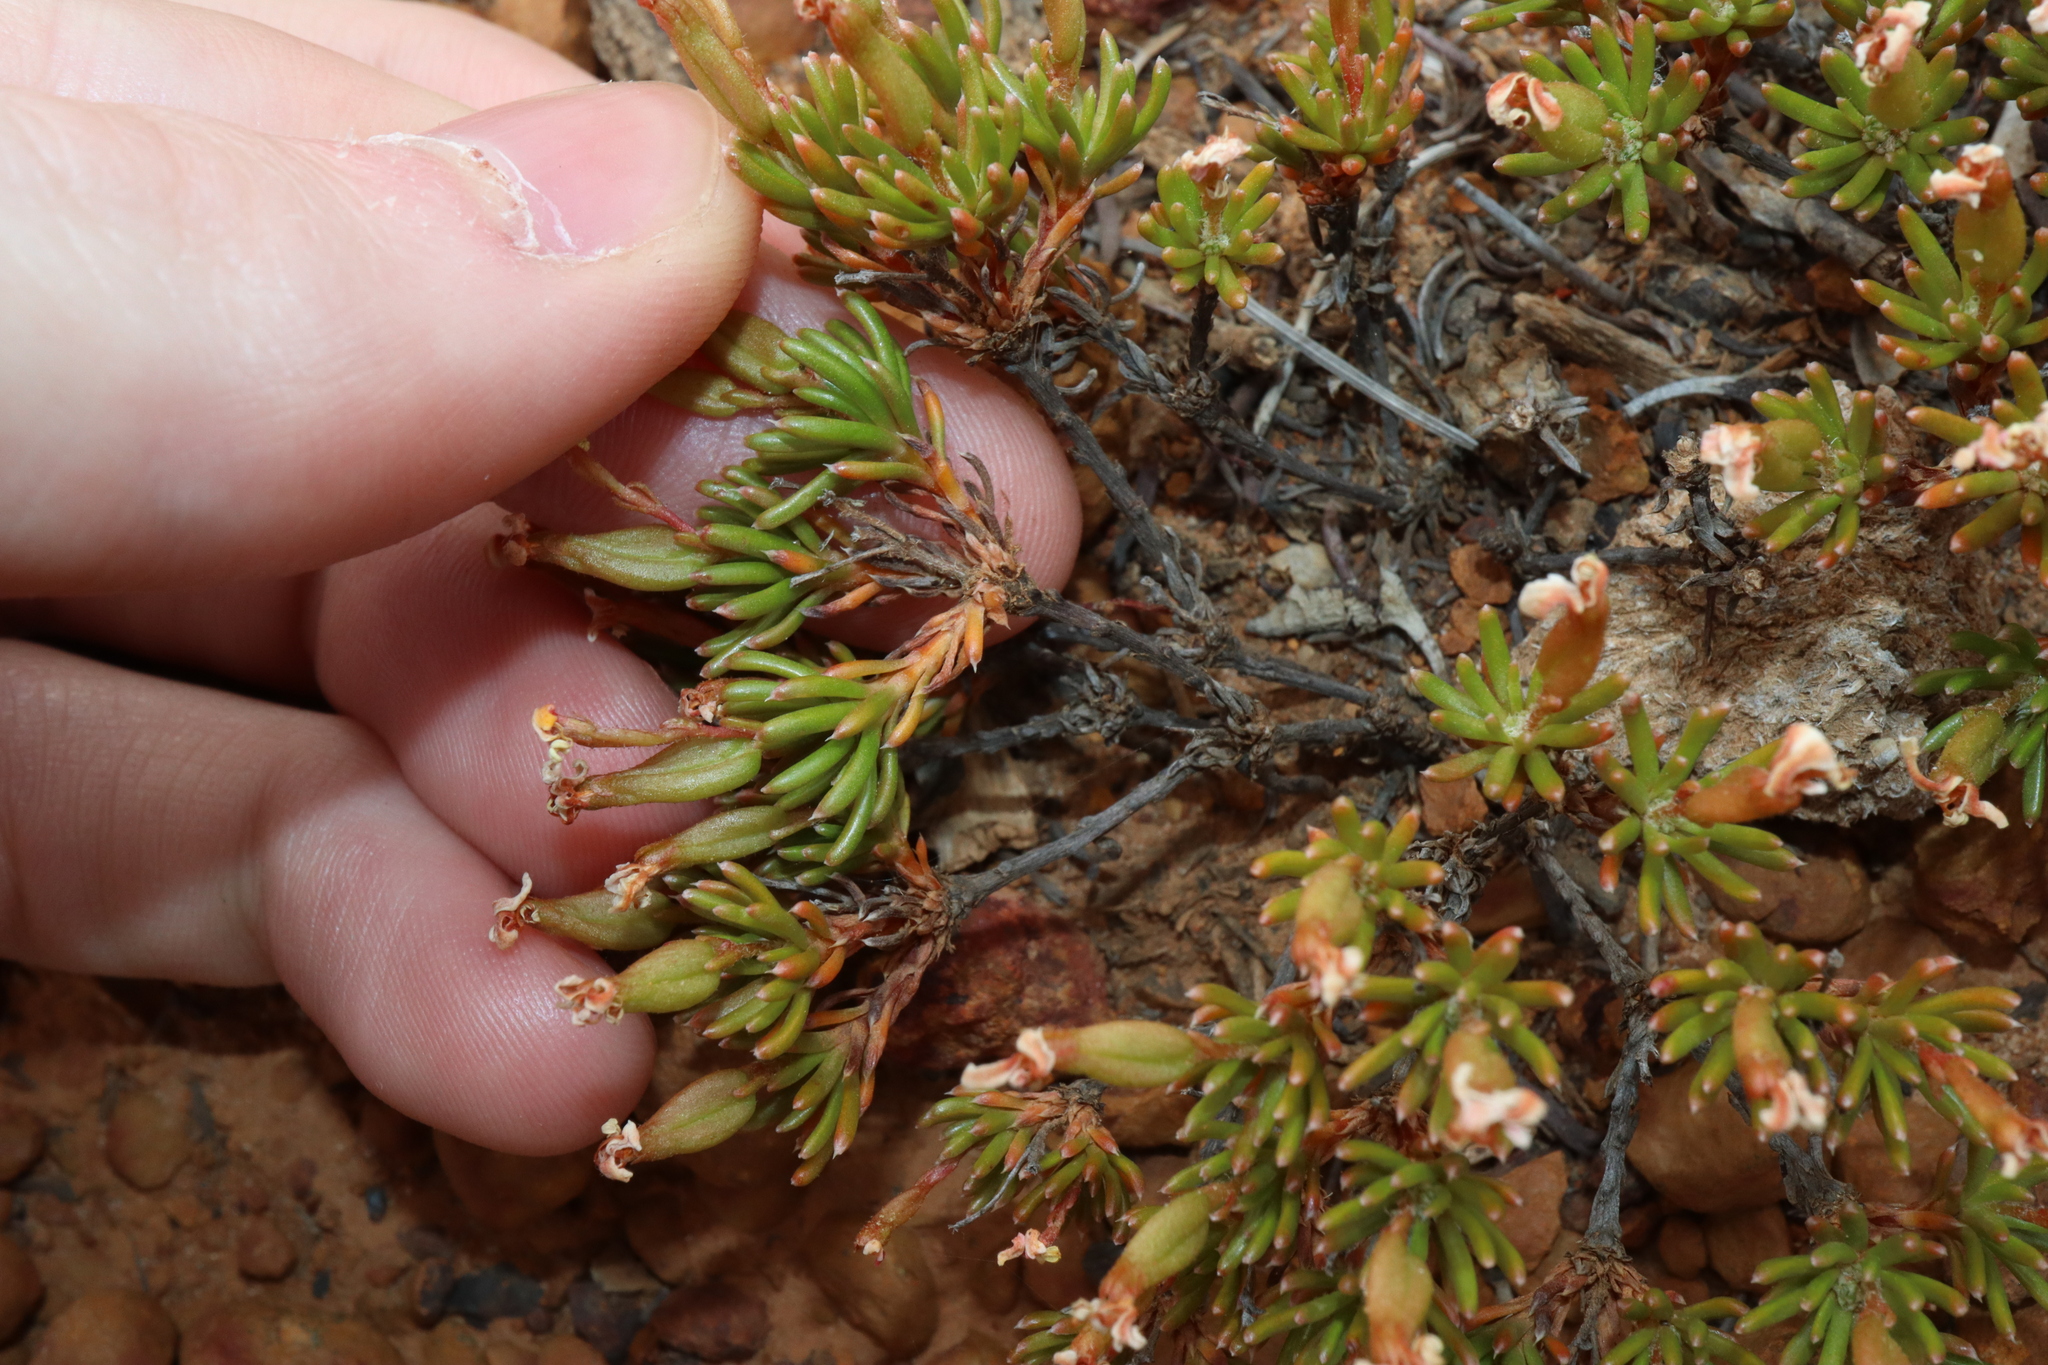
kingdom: Plantae
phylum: Tracheophyta
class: Magnoliopsida
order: Asterales
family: Stylidiaceae
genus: Stylidium
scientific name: Stylidium involucratum
